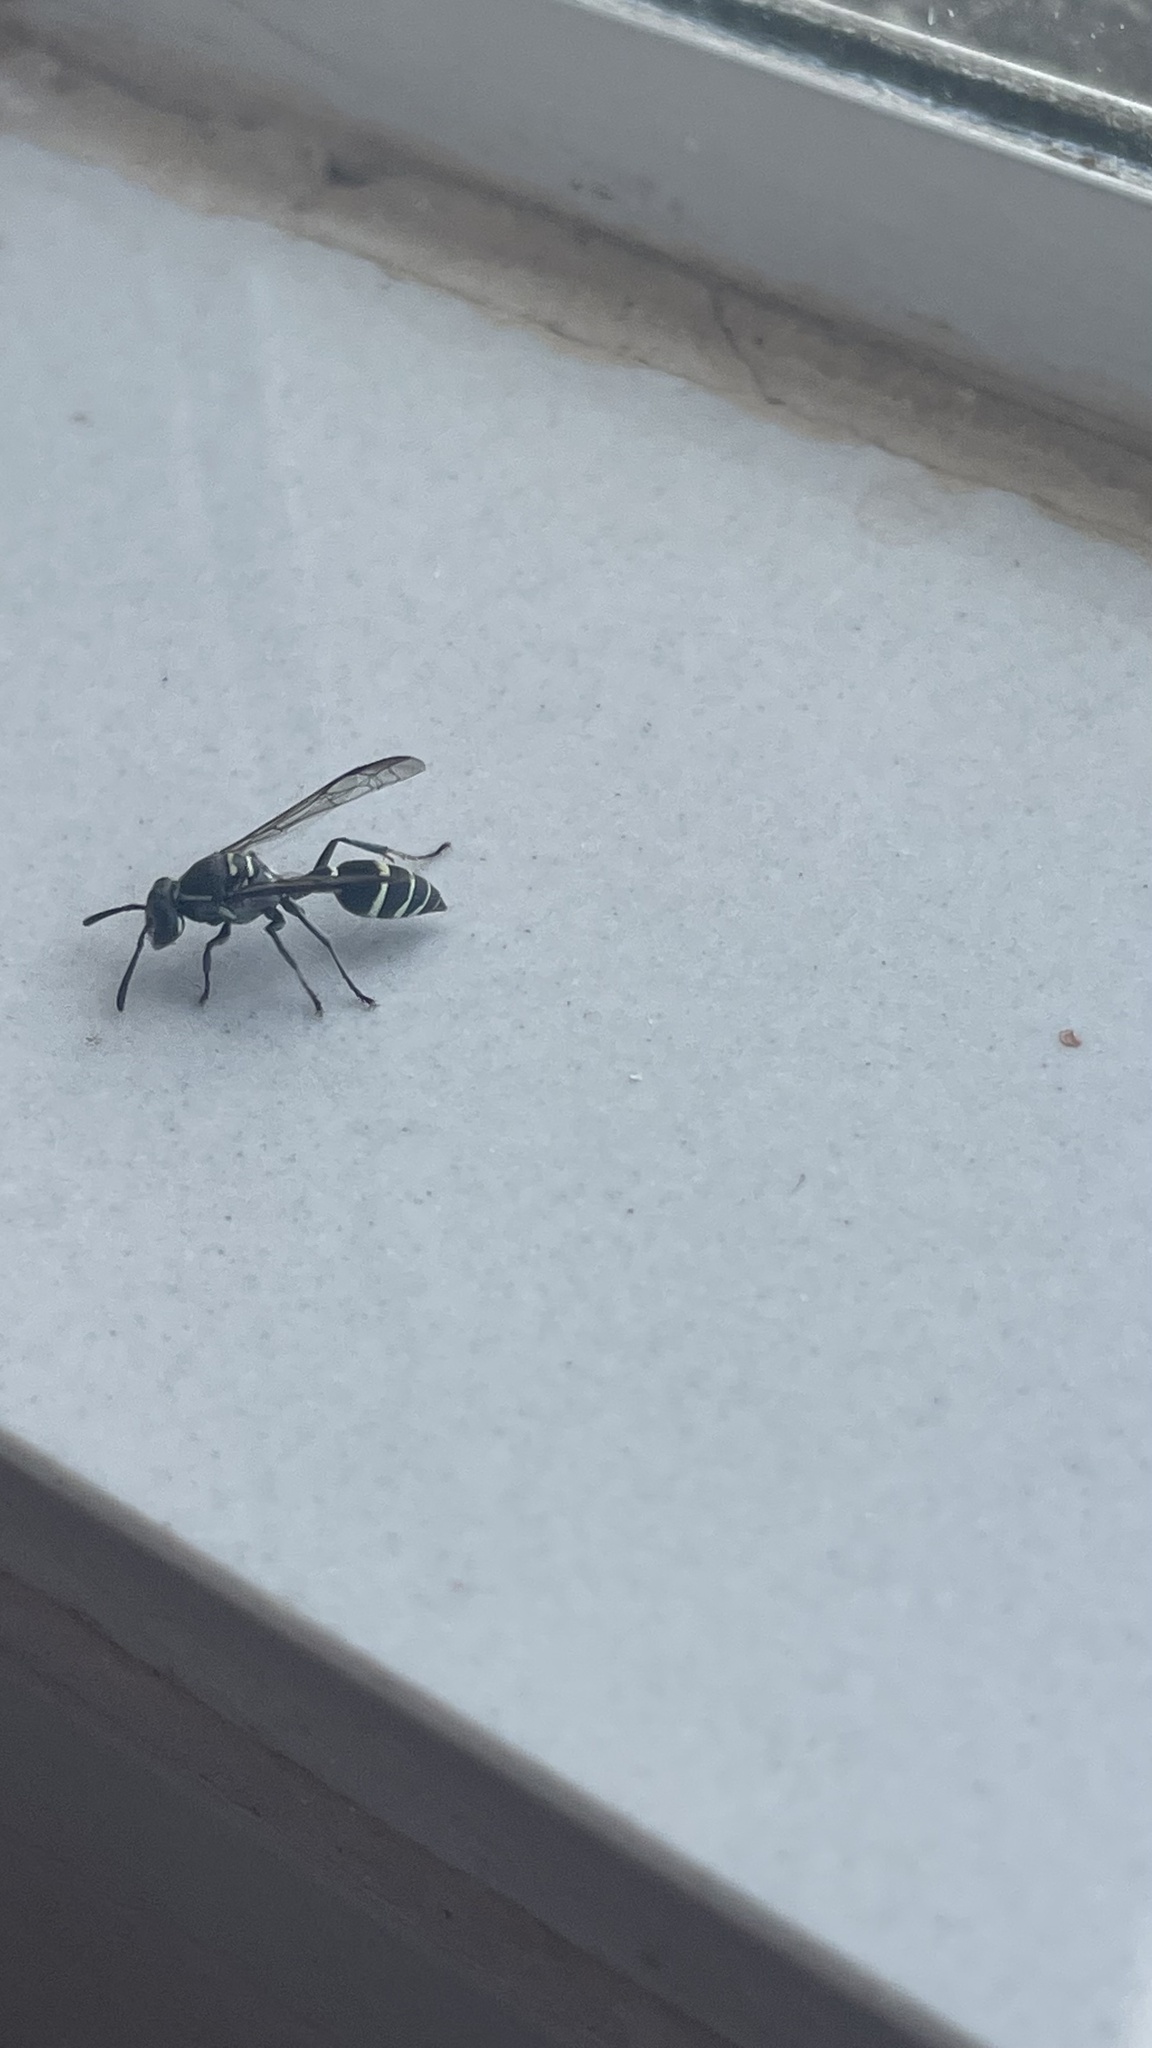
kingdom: Animalia
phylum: Arthropoda
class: Insecta
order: Hymenoptera
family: Eumenidae
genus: Polybia
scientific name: Polybia occidentalis
